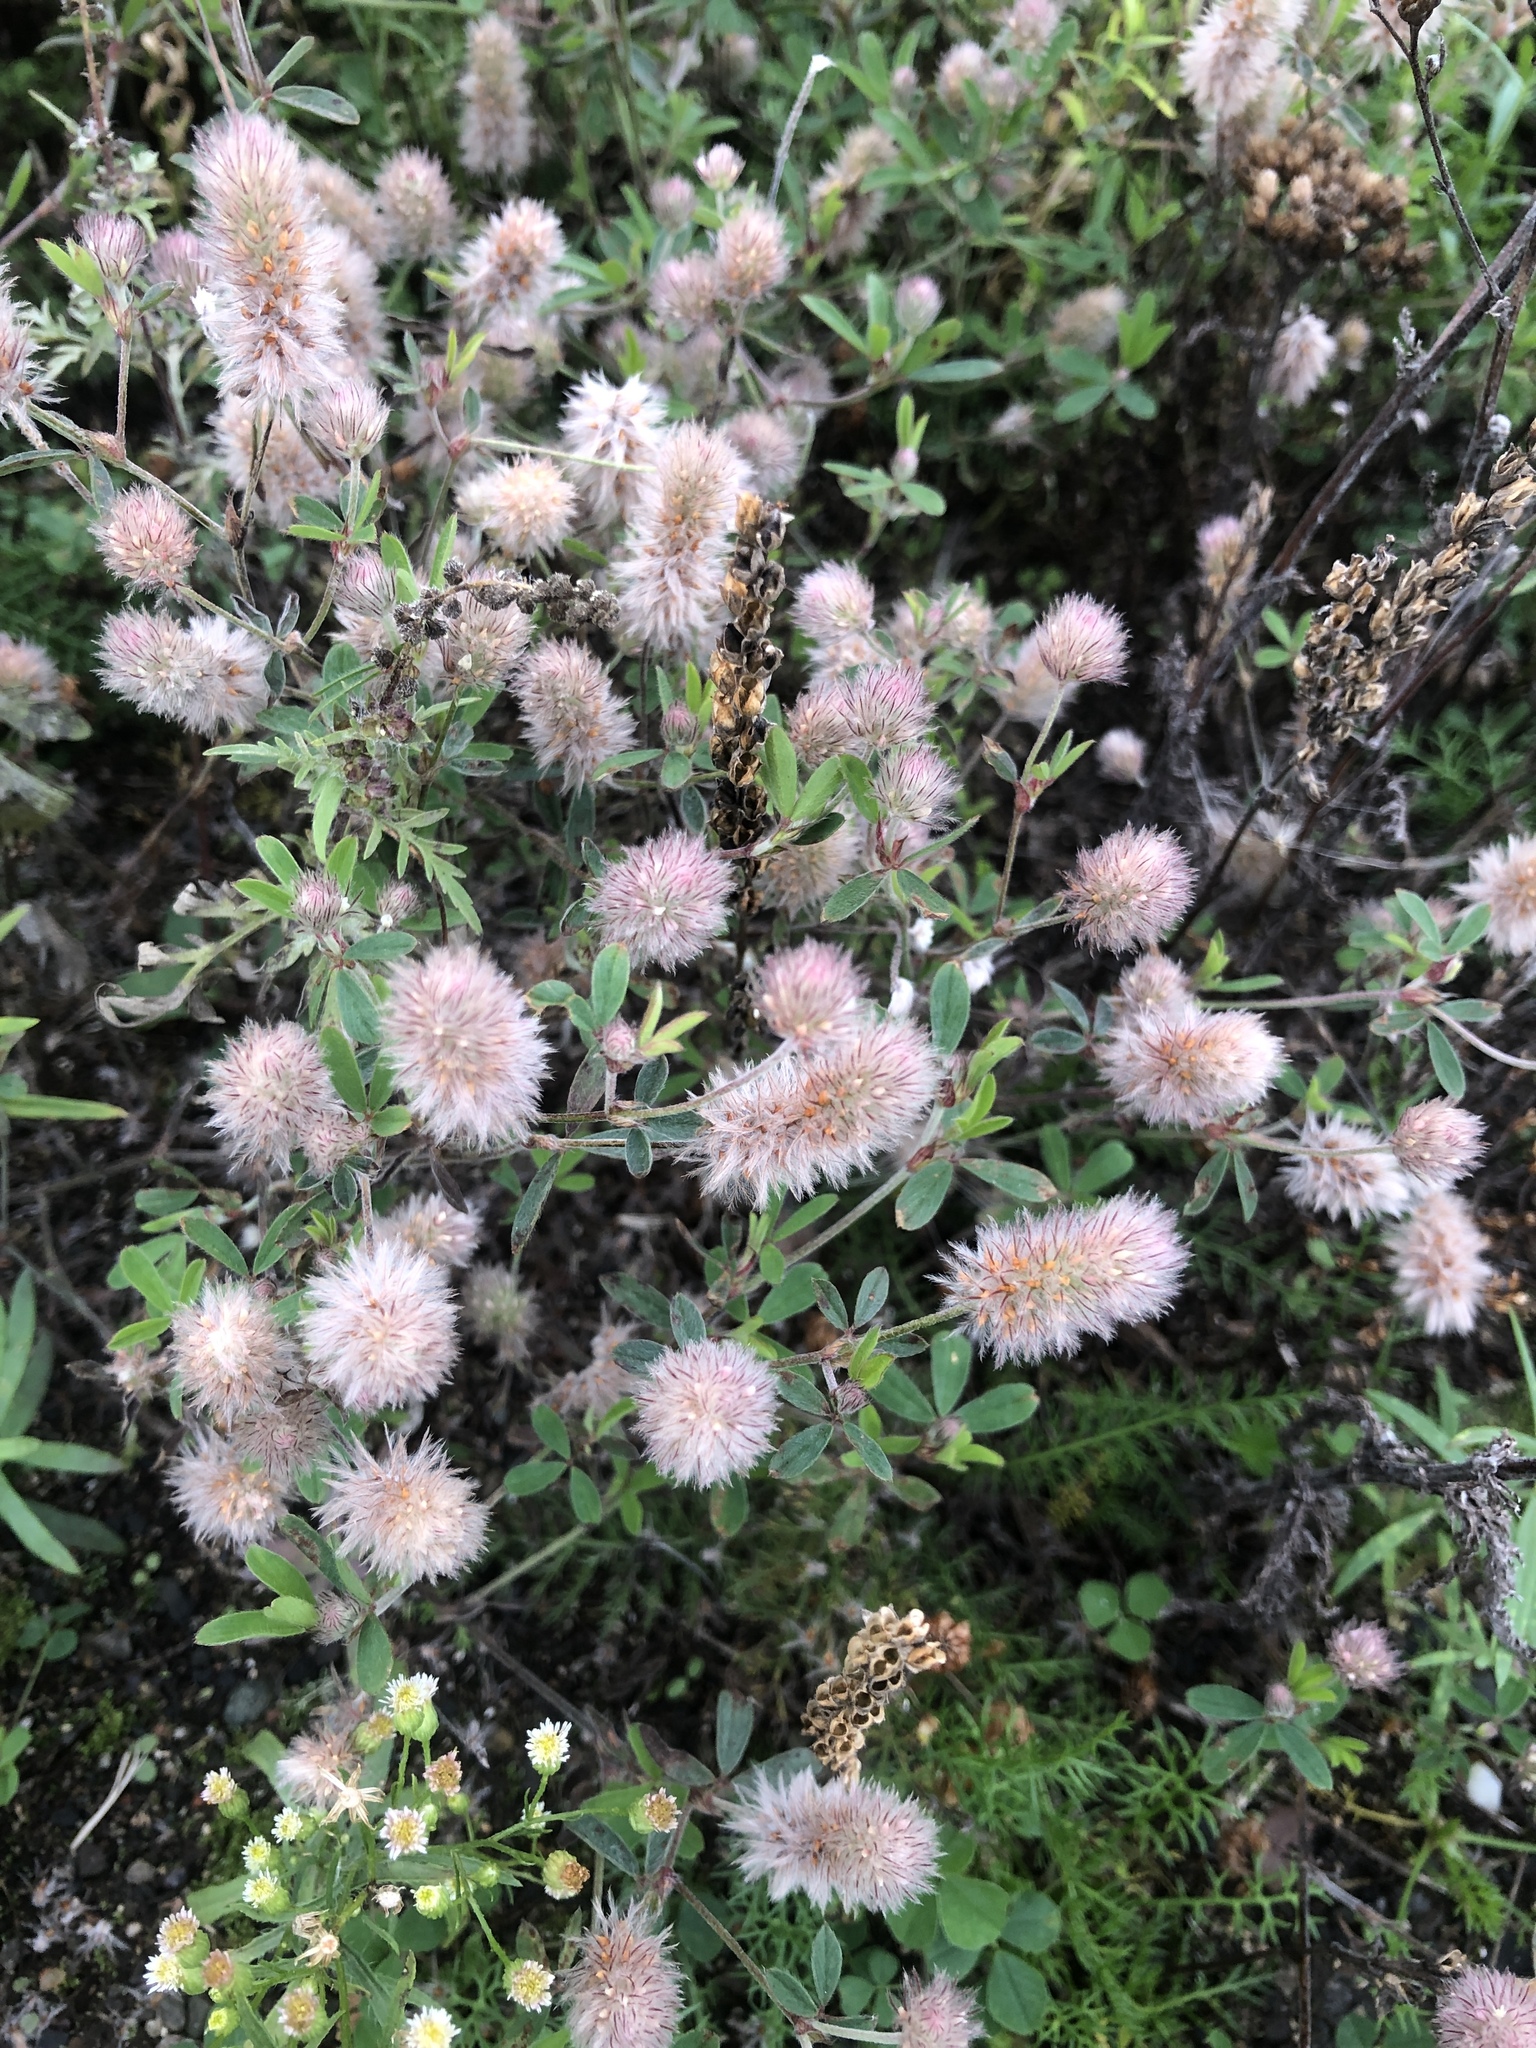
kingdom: Plantae
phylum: Tracheophyta
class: Magnoliopsida
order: Fabales
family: Fabaceae
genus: Trifolium
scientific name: Trifolium arvense
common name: Hare's-foot clover
